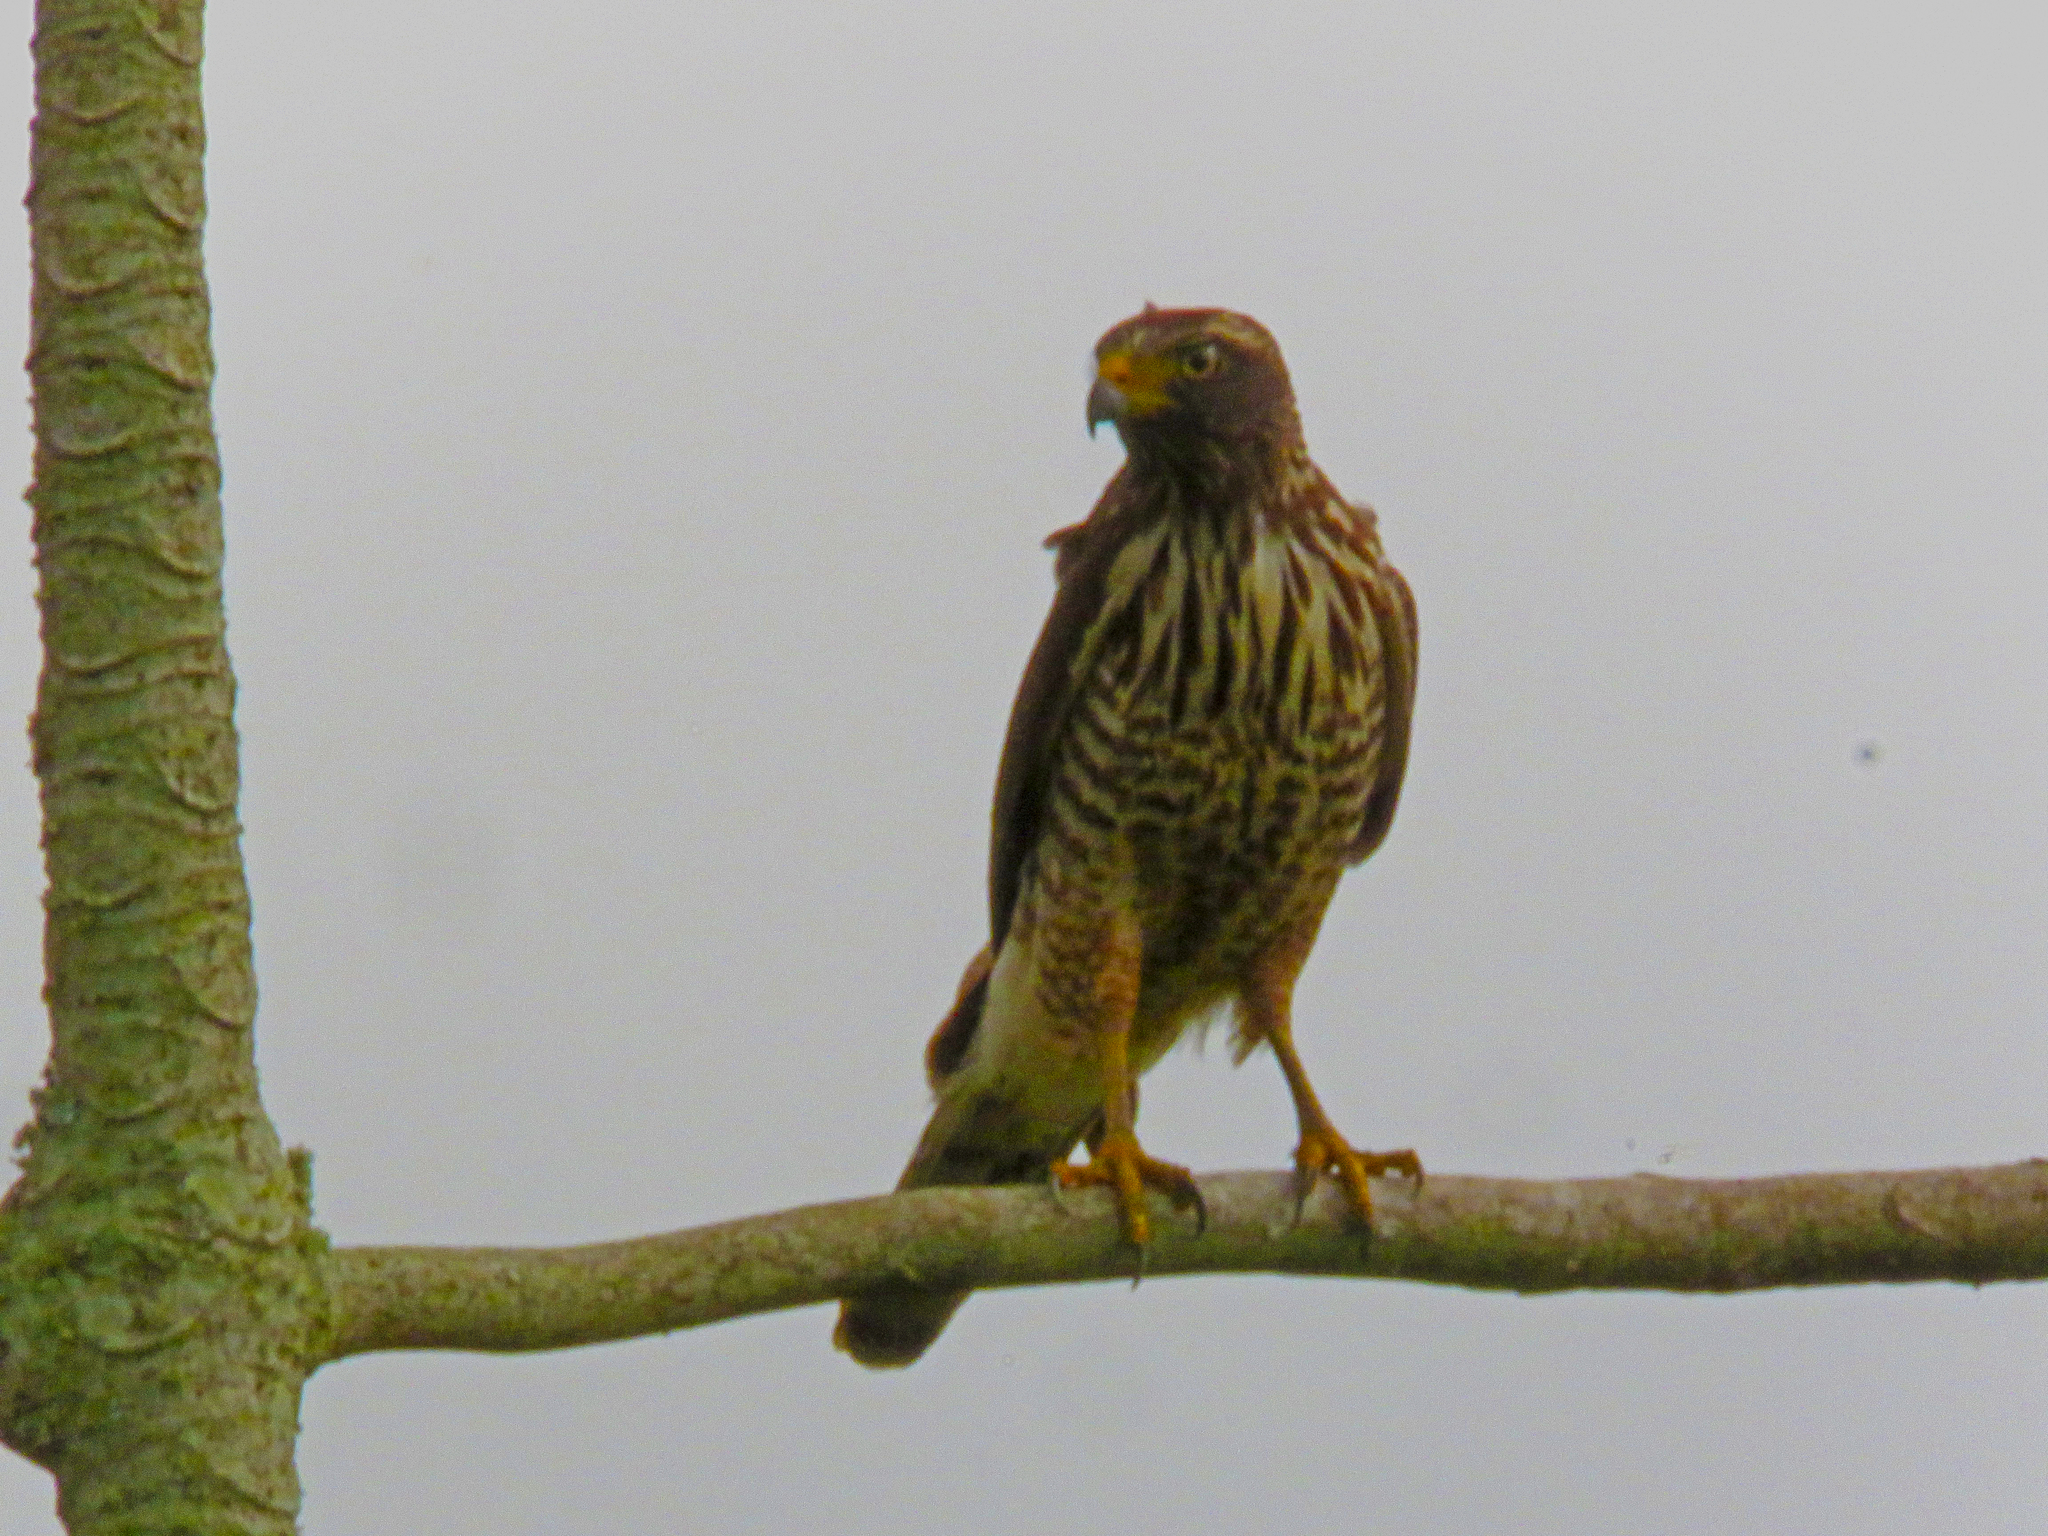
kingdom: Animalia
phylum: Chordata
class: Aves
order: Accipitriformes
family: Accipitridae
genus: Rupornis
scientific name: Rupornis magnirostris
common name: Roadside hawk
